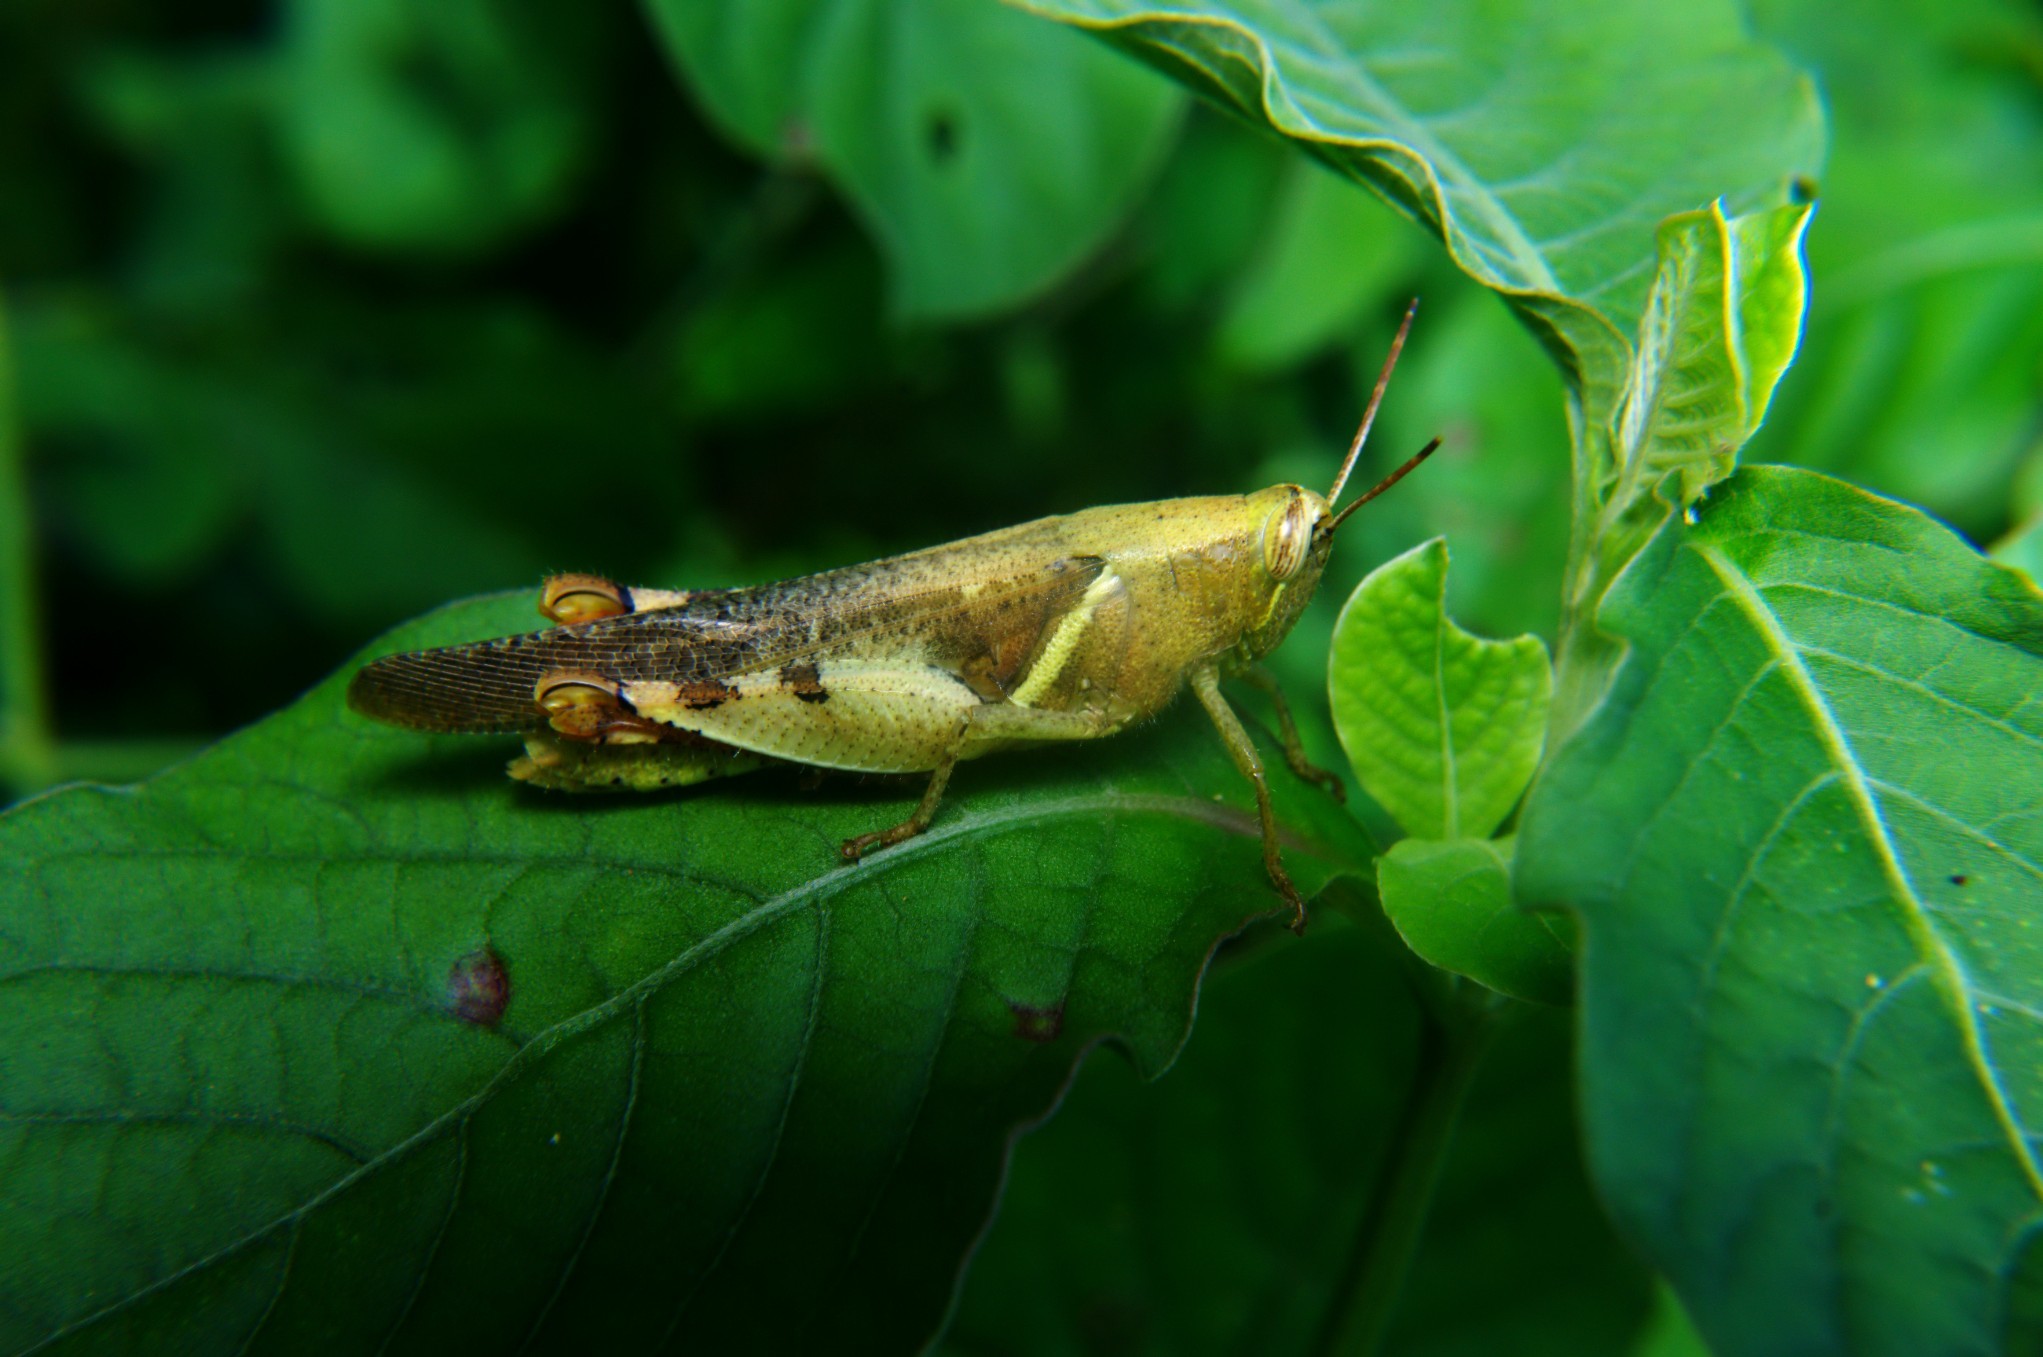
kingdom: Animalia
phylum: Arthropoda
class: Insecta
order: Orthoptera
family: Acrididae
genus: Diabolocatantops
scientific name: Diabolocatantops innotabilis
